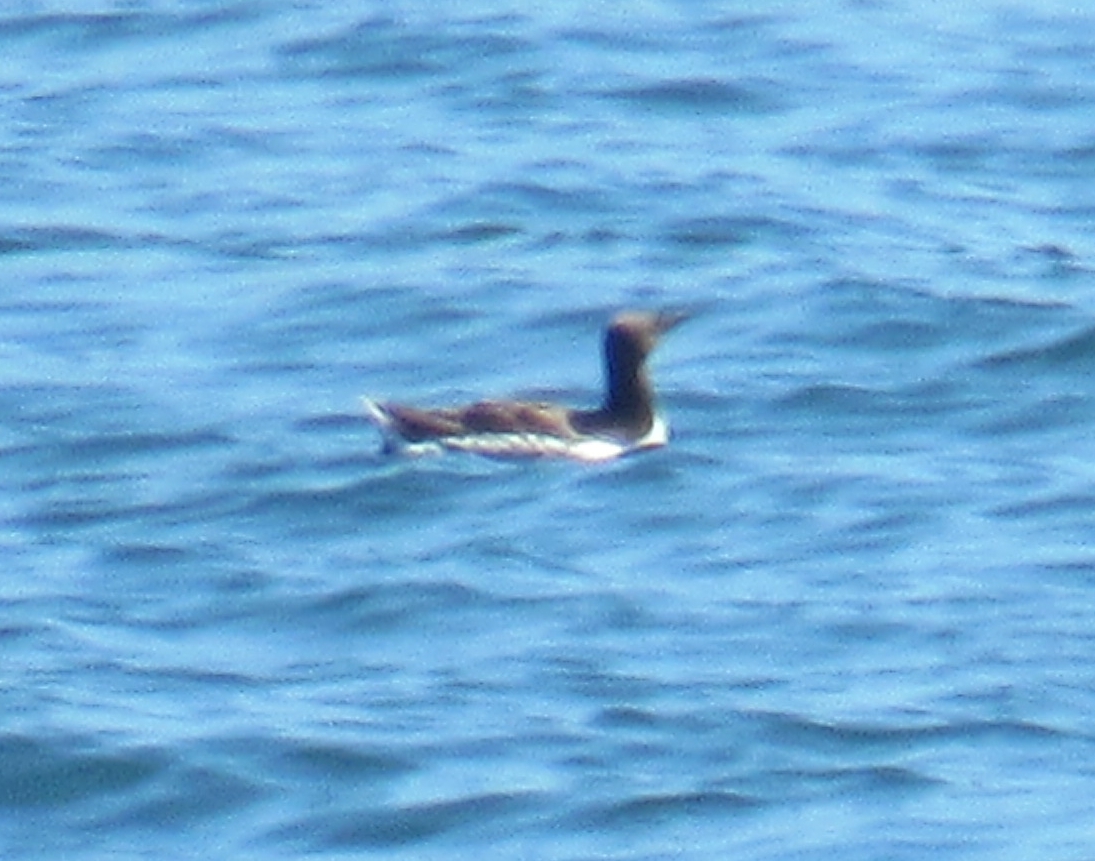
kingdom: Animalia
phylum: Chordata
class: Aves
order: Charadriiformes
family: Alcidae
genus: Uria
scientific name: Uria aalge
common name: Common murre
